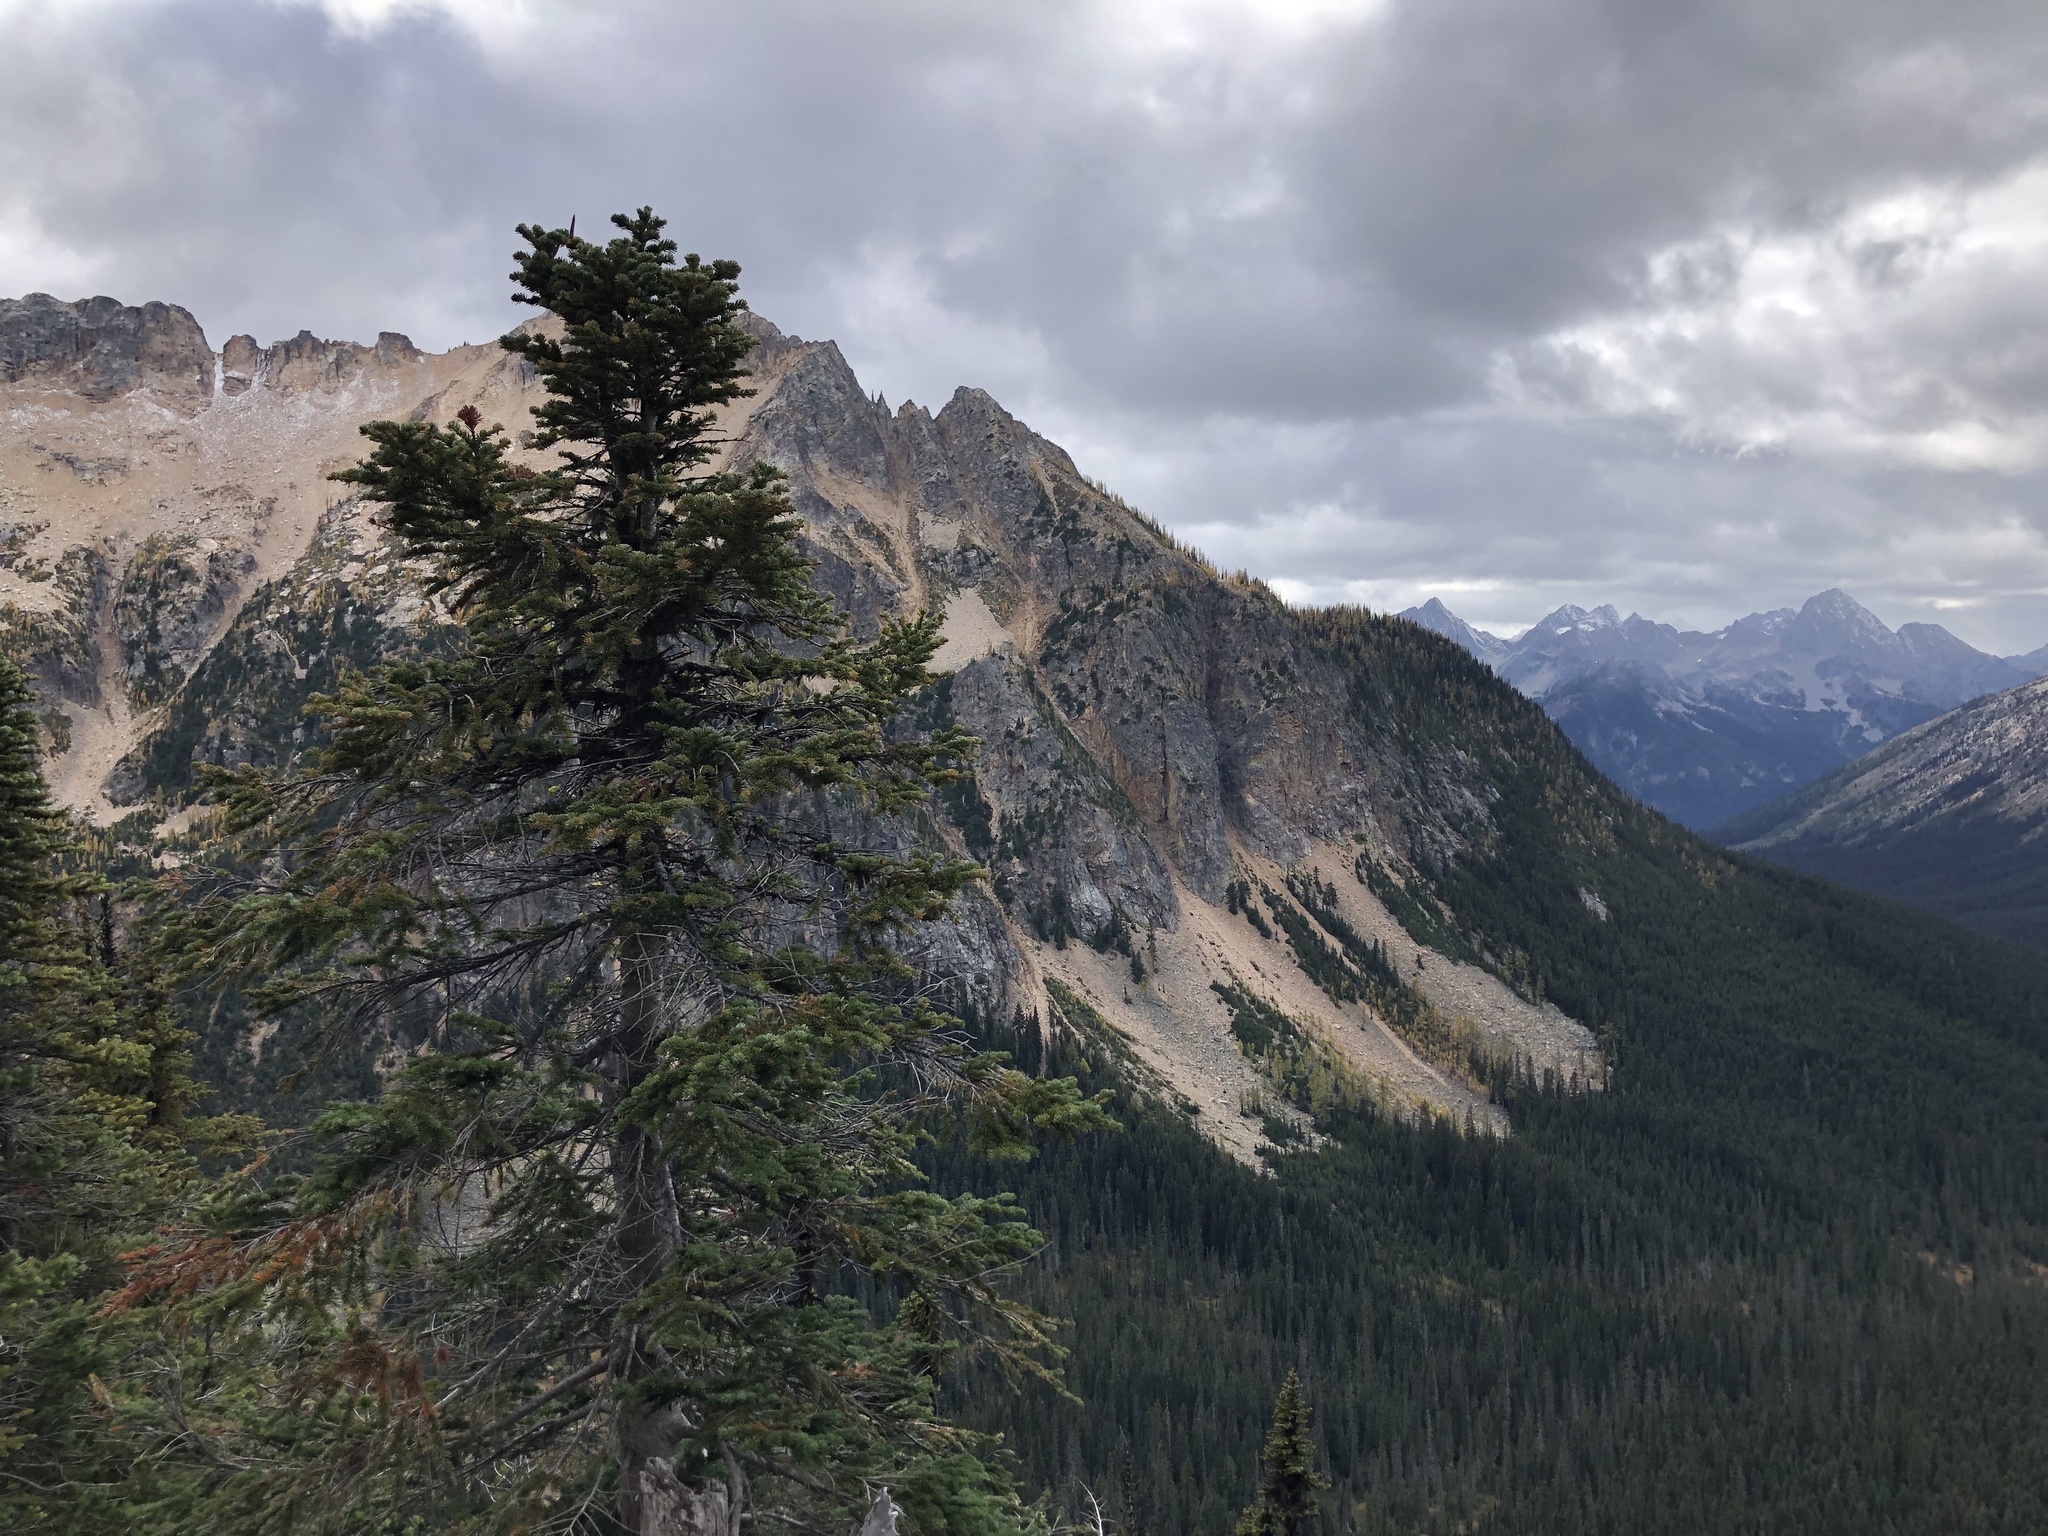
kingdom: Plantae
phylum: Tracheophyta
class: Pinopsida
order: Pinales
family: Pinaceae
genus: Abies
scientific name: Abies amabilis
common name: Pacific silver fir
